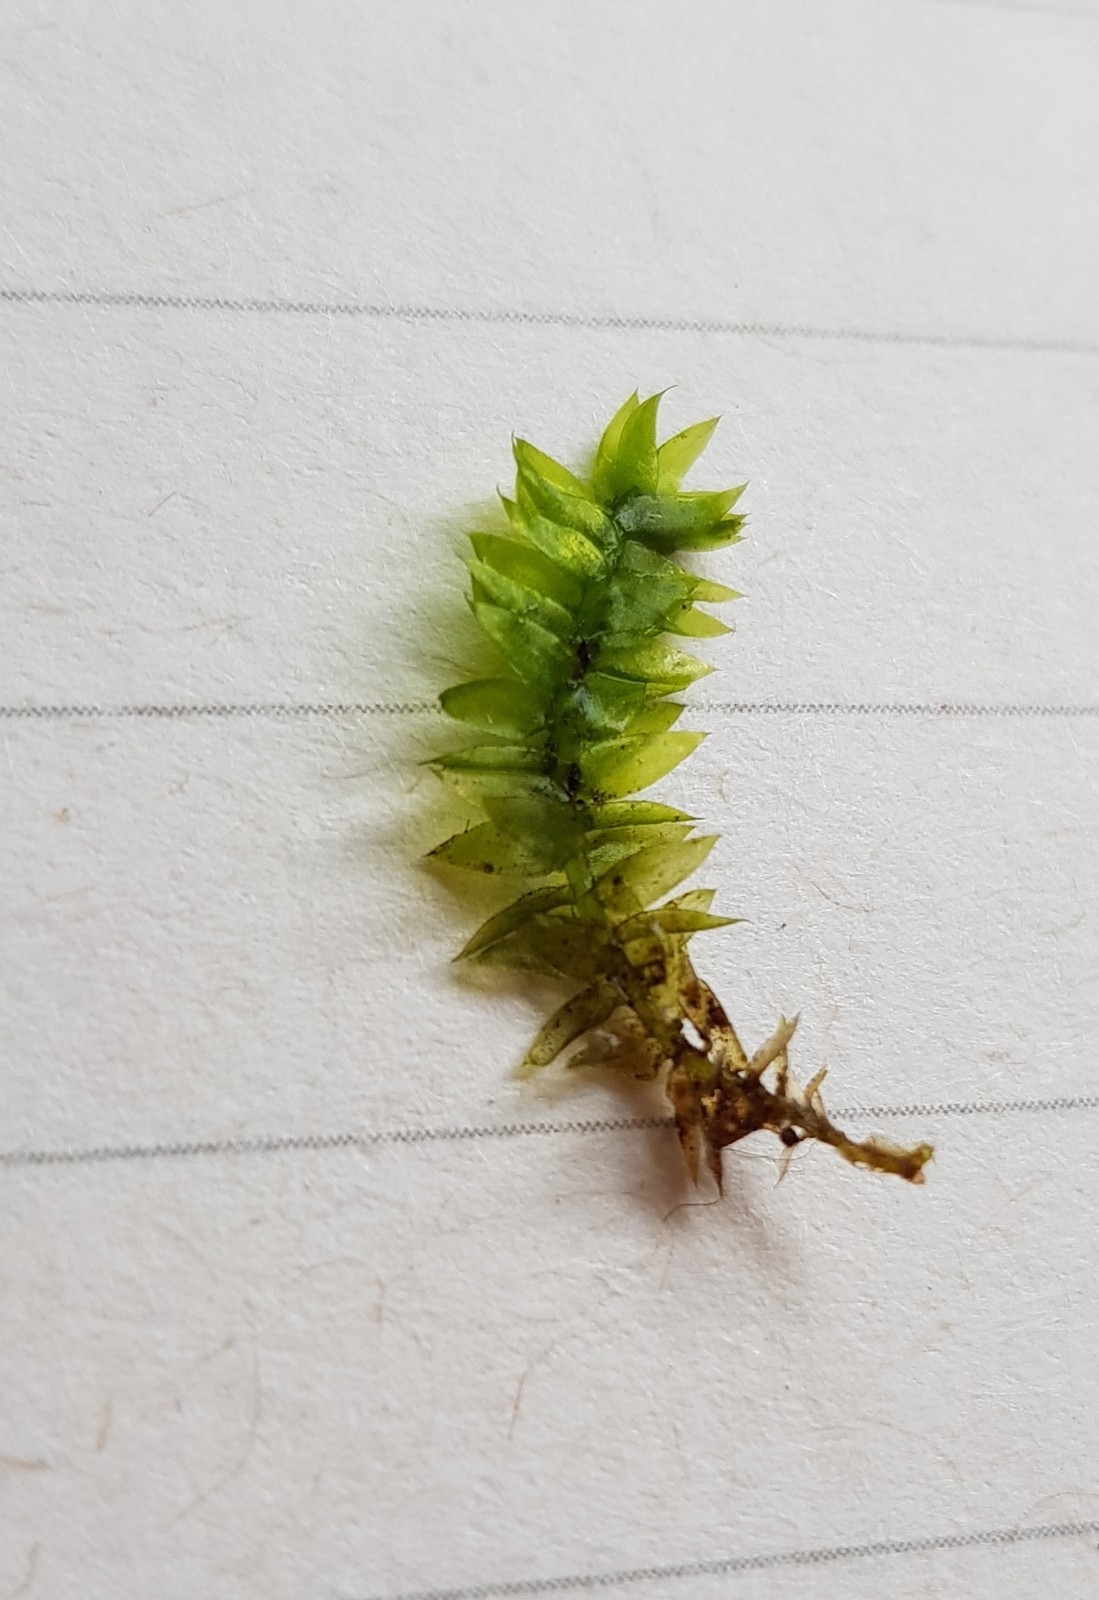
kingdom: Plantae
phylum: Bryophyta
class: Bryopsida
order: Hypnales
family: Plagiotheciaceae
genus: Plagiothecium
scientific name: Plagiothecium nemorale
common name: Woodsy silk-moss
